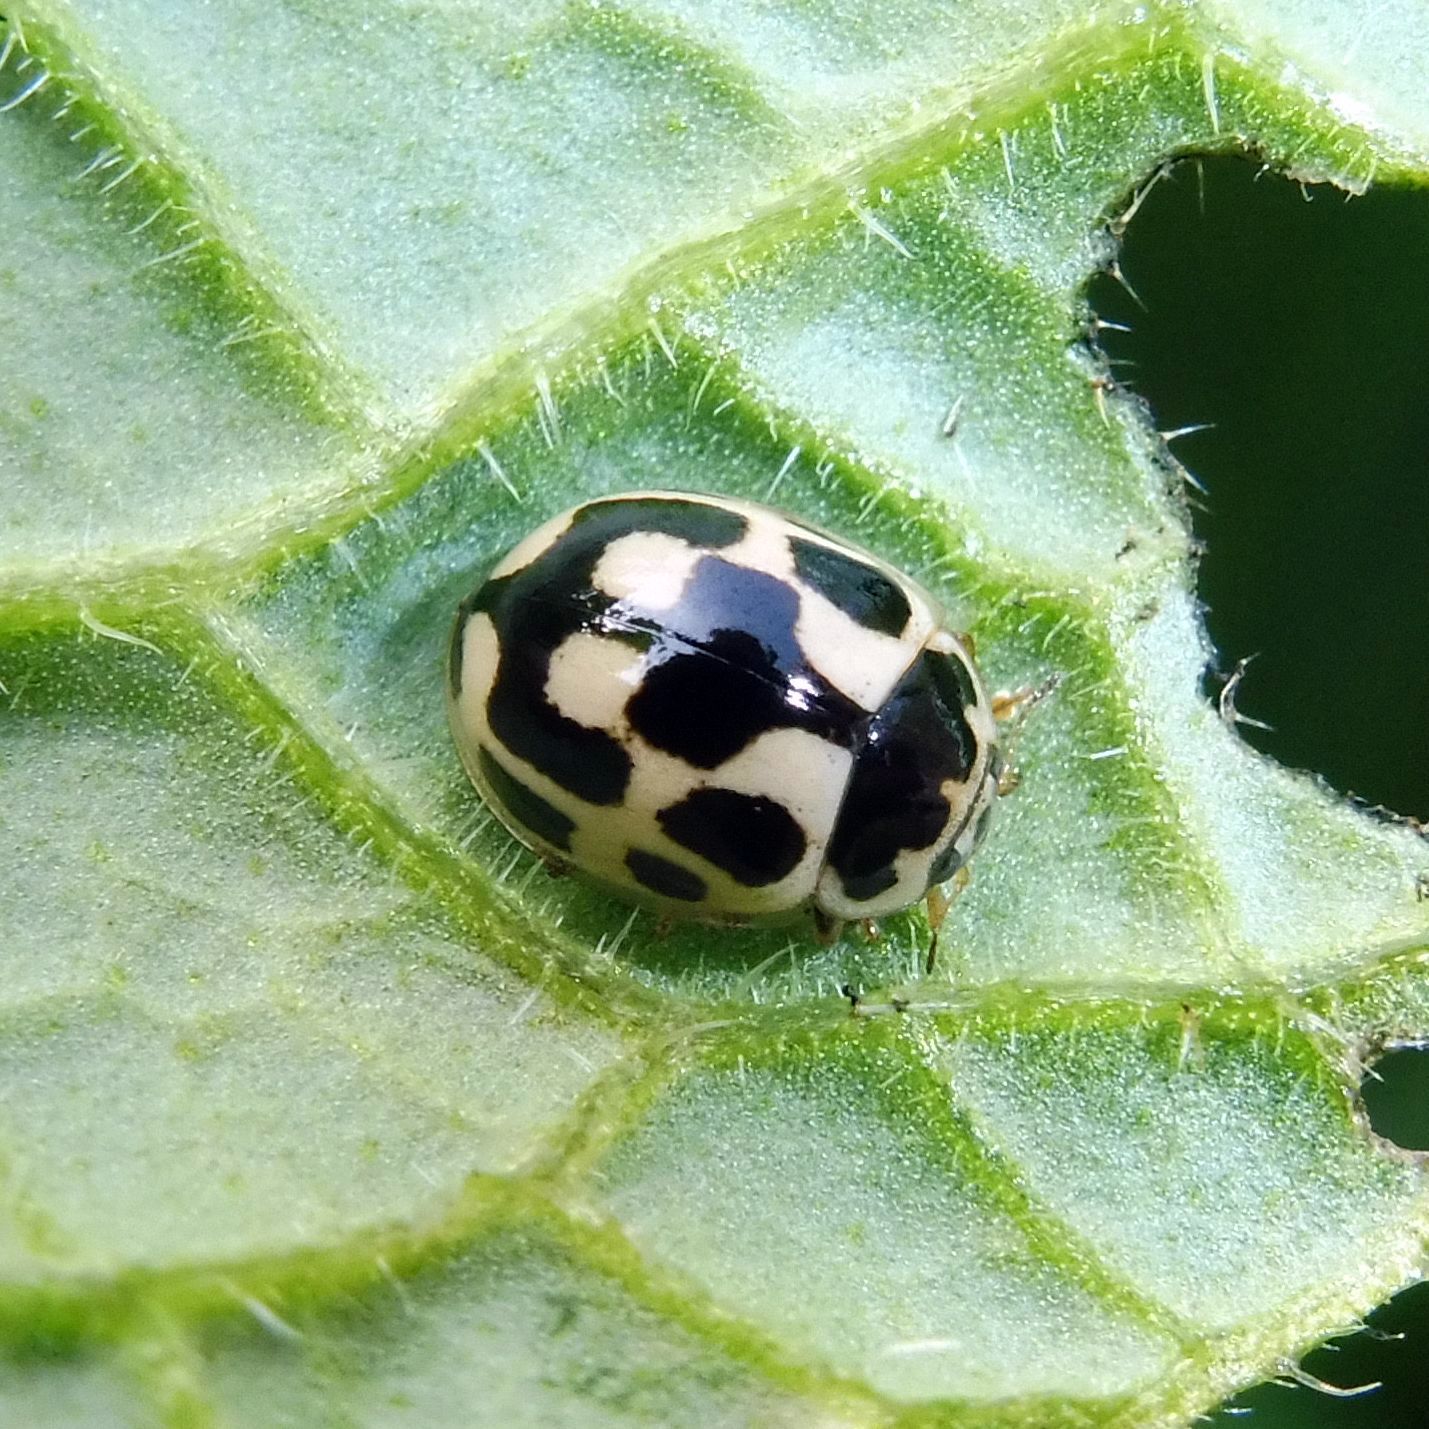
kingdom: Animalia
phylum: Arthropoda
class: Insecta
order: Coleoptera
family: Coccinellidae
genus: Propylaea
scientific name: Propylaea quatuordecimpunctata
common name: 14-spotted ladybird beetle
